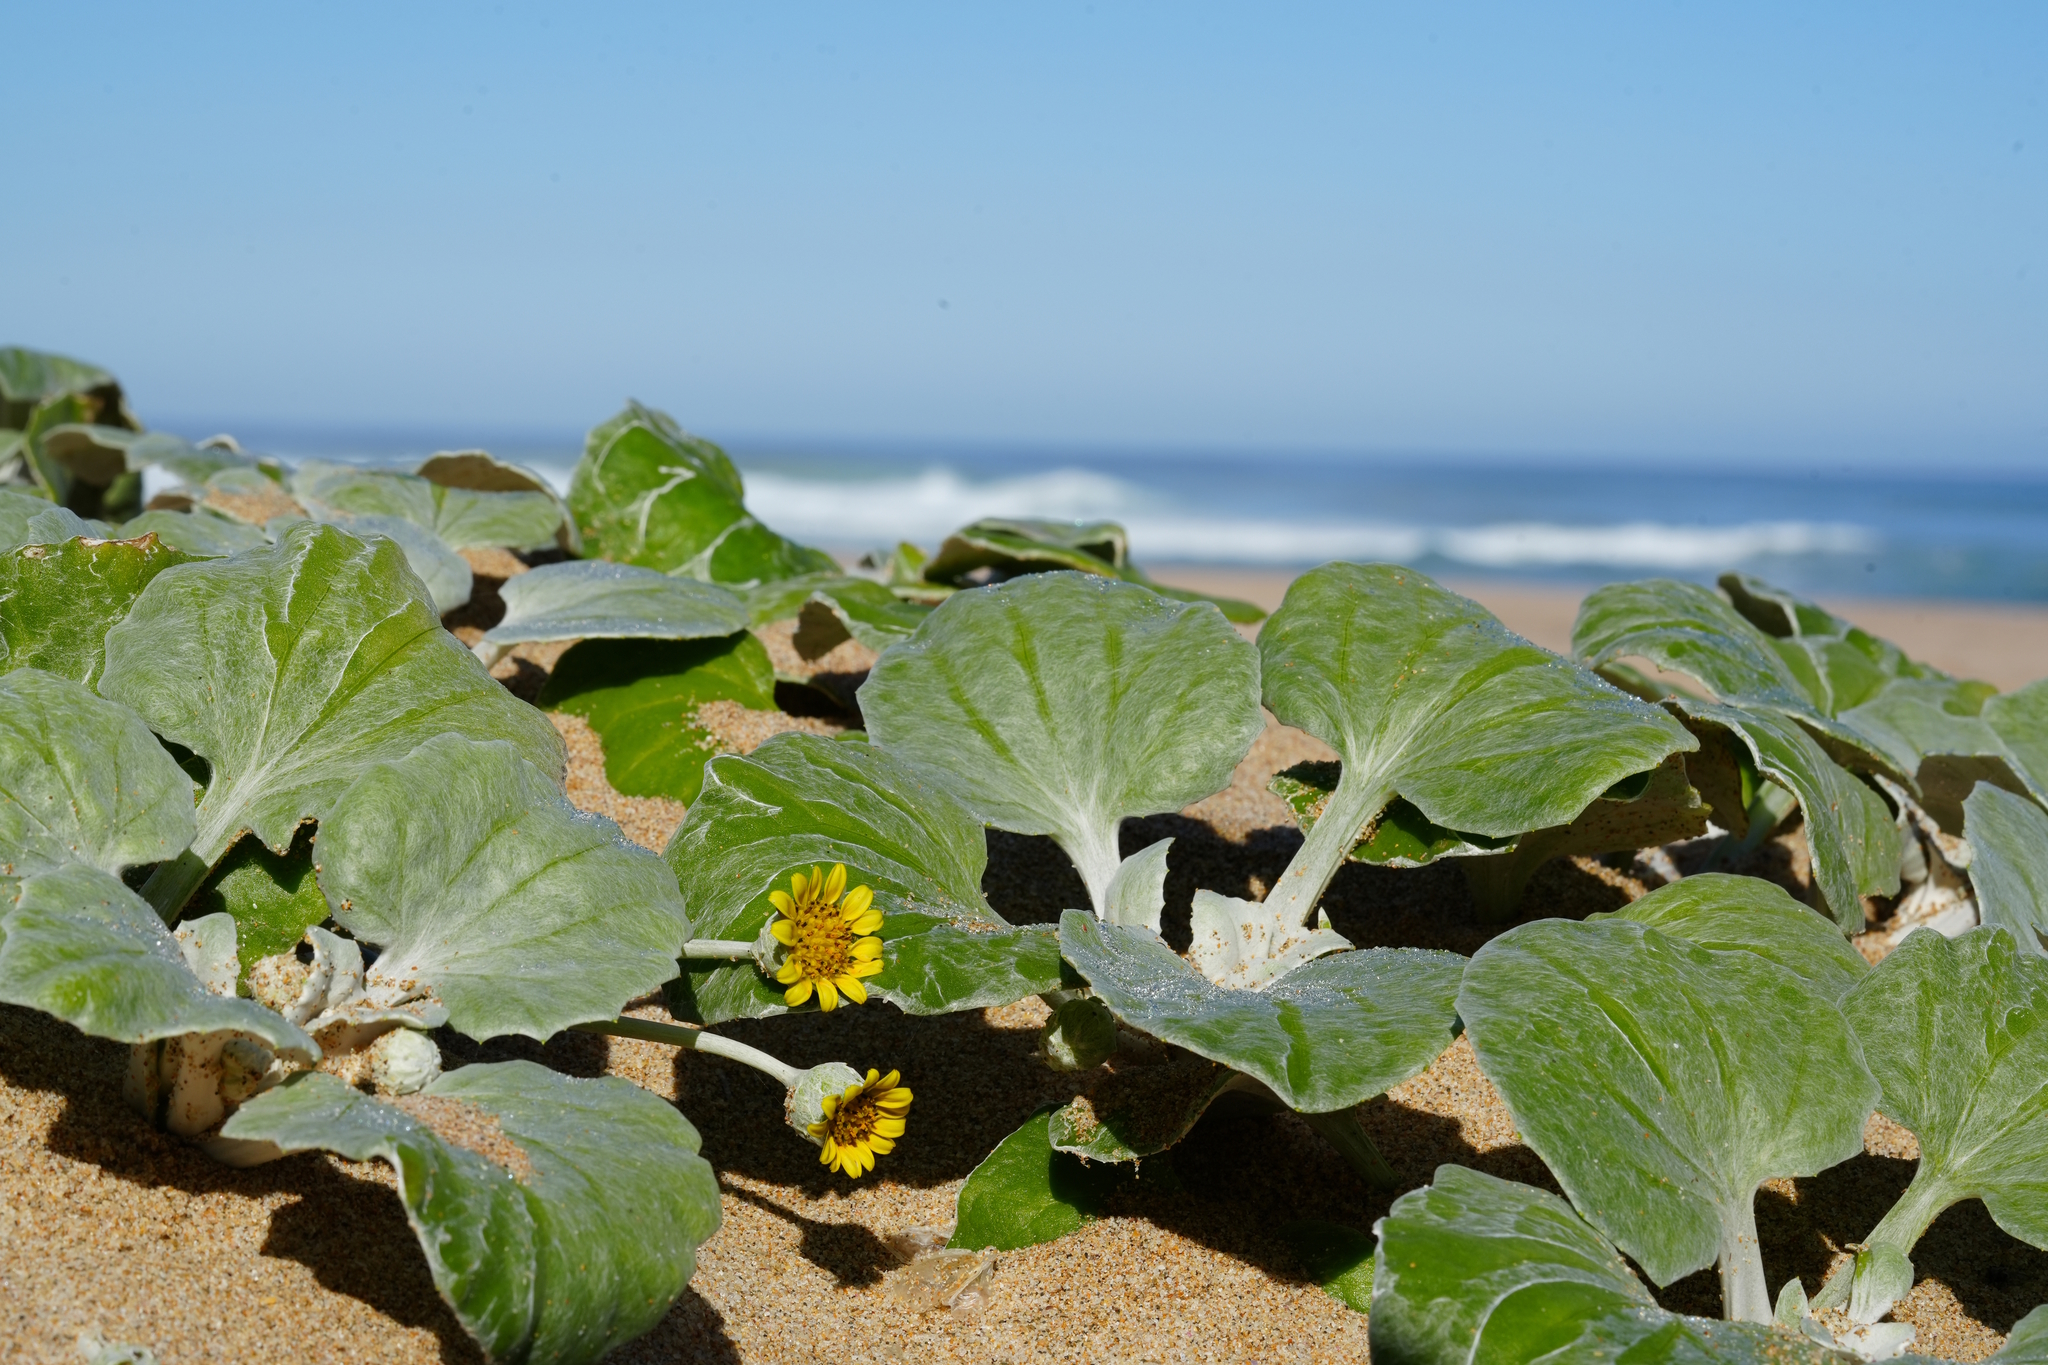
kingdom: Plantae
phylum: Tracheophyta
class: Magnoliopsida
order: Asterales
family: Asteraceae
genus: Arctotheca
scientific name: Arctotheca populifolia
